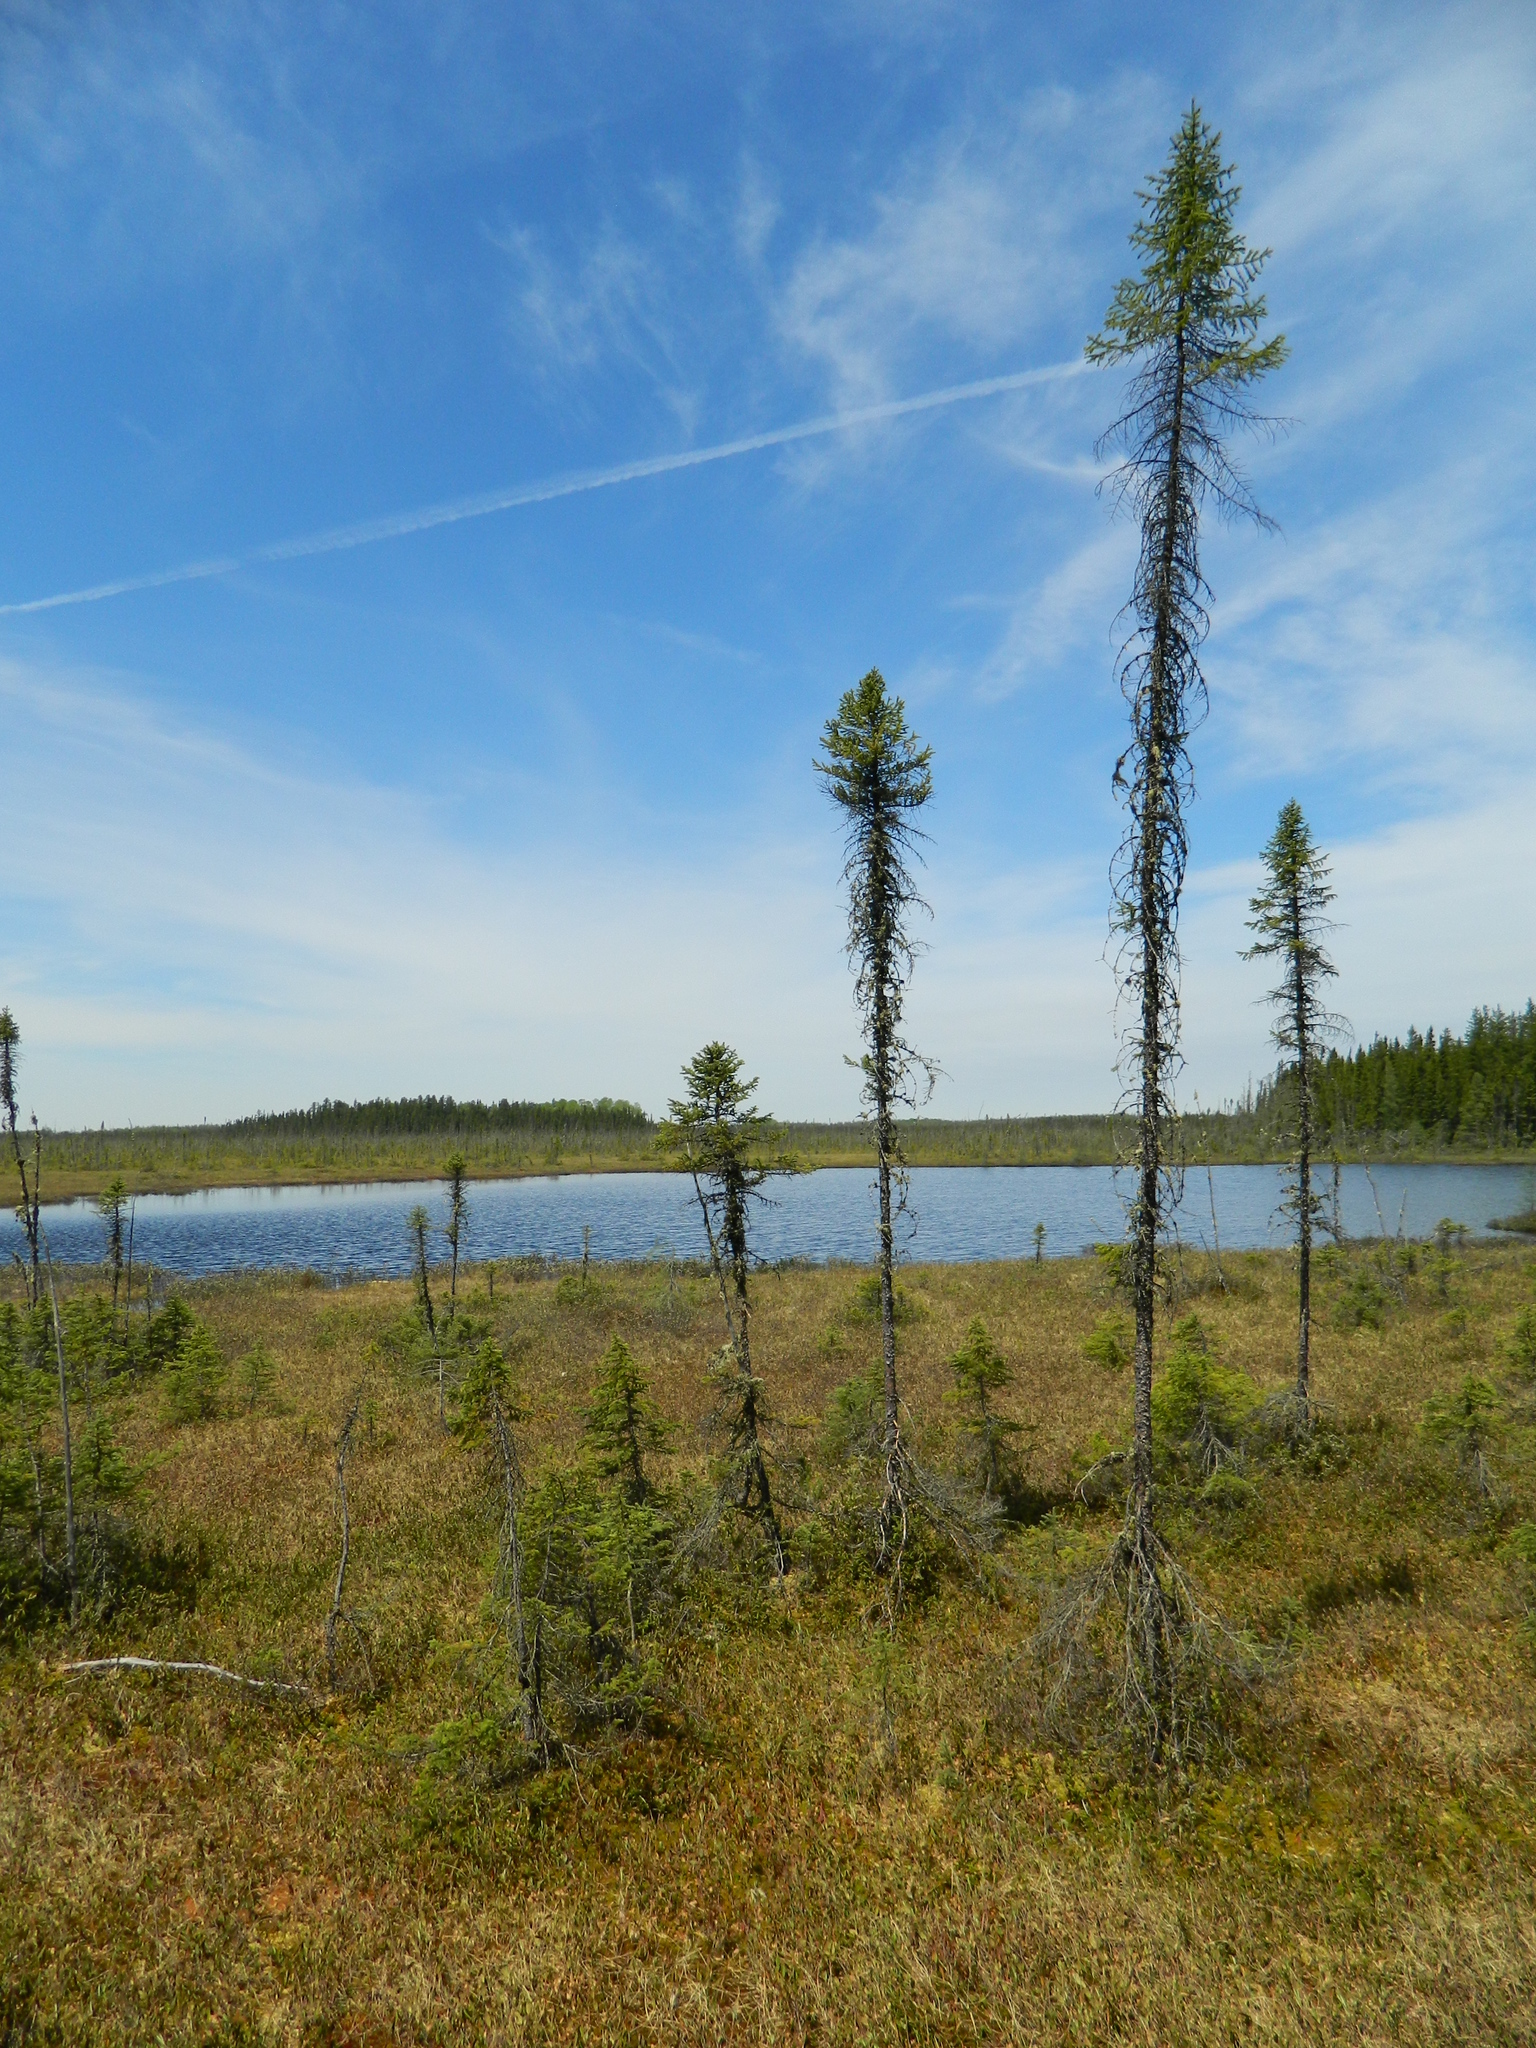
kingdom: Plantae
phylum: Tracheophyta
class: Pinopsida
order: Pinales
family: Pinaceae
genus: Picea
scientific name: Picea mariana
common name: Black spruce
